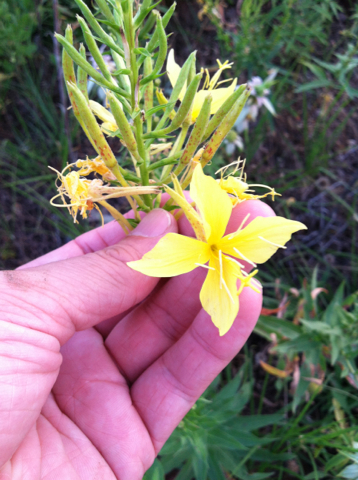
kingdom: Plantae
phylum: Tracheophyta
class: Magnoliopsida
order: Myrtales
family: Onagraceae
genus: Oenothera
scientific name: Oenothera rhombipetala
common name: Four-points evening-primrose
